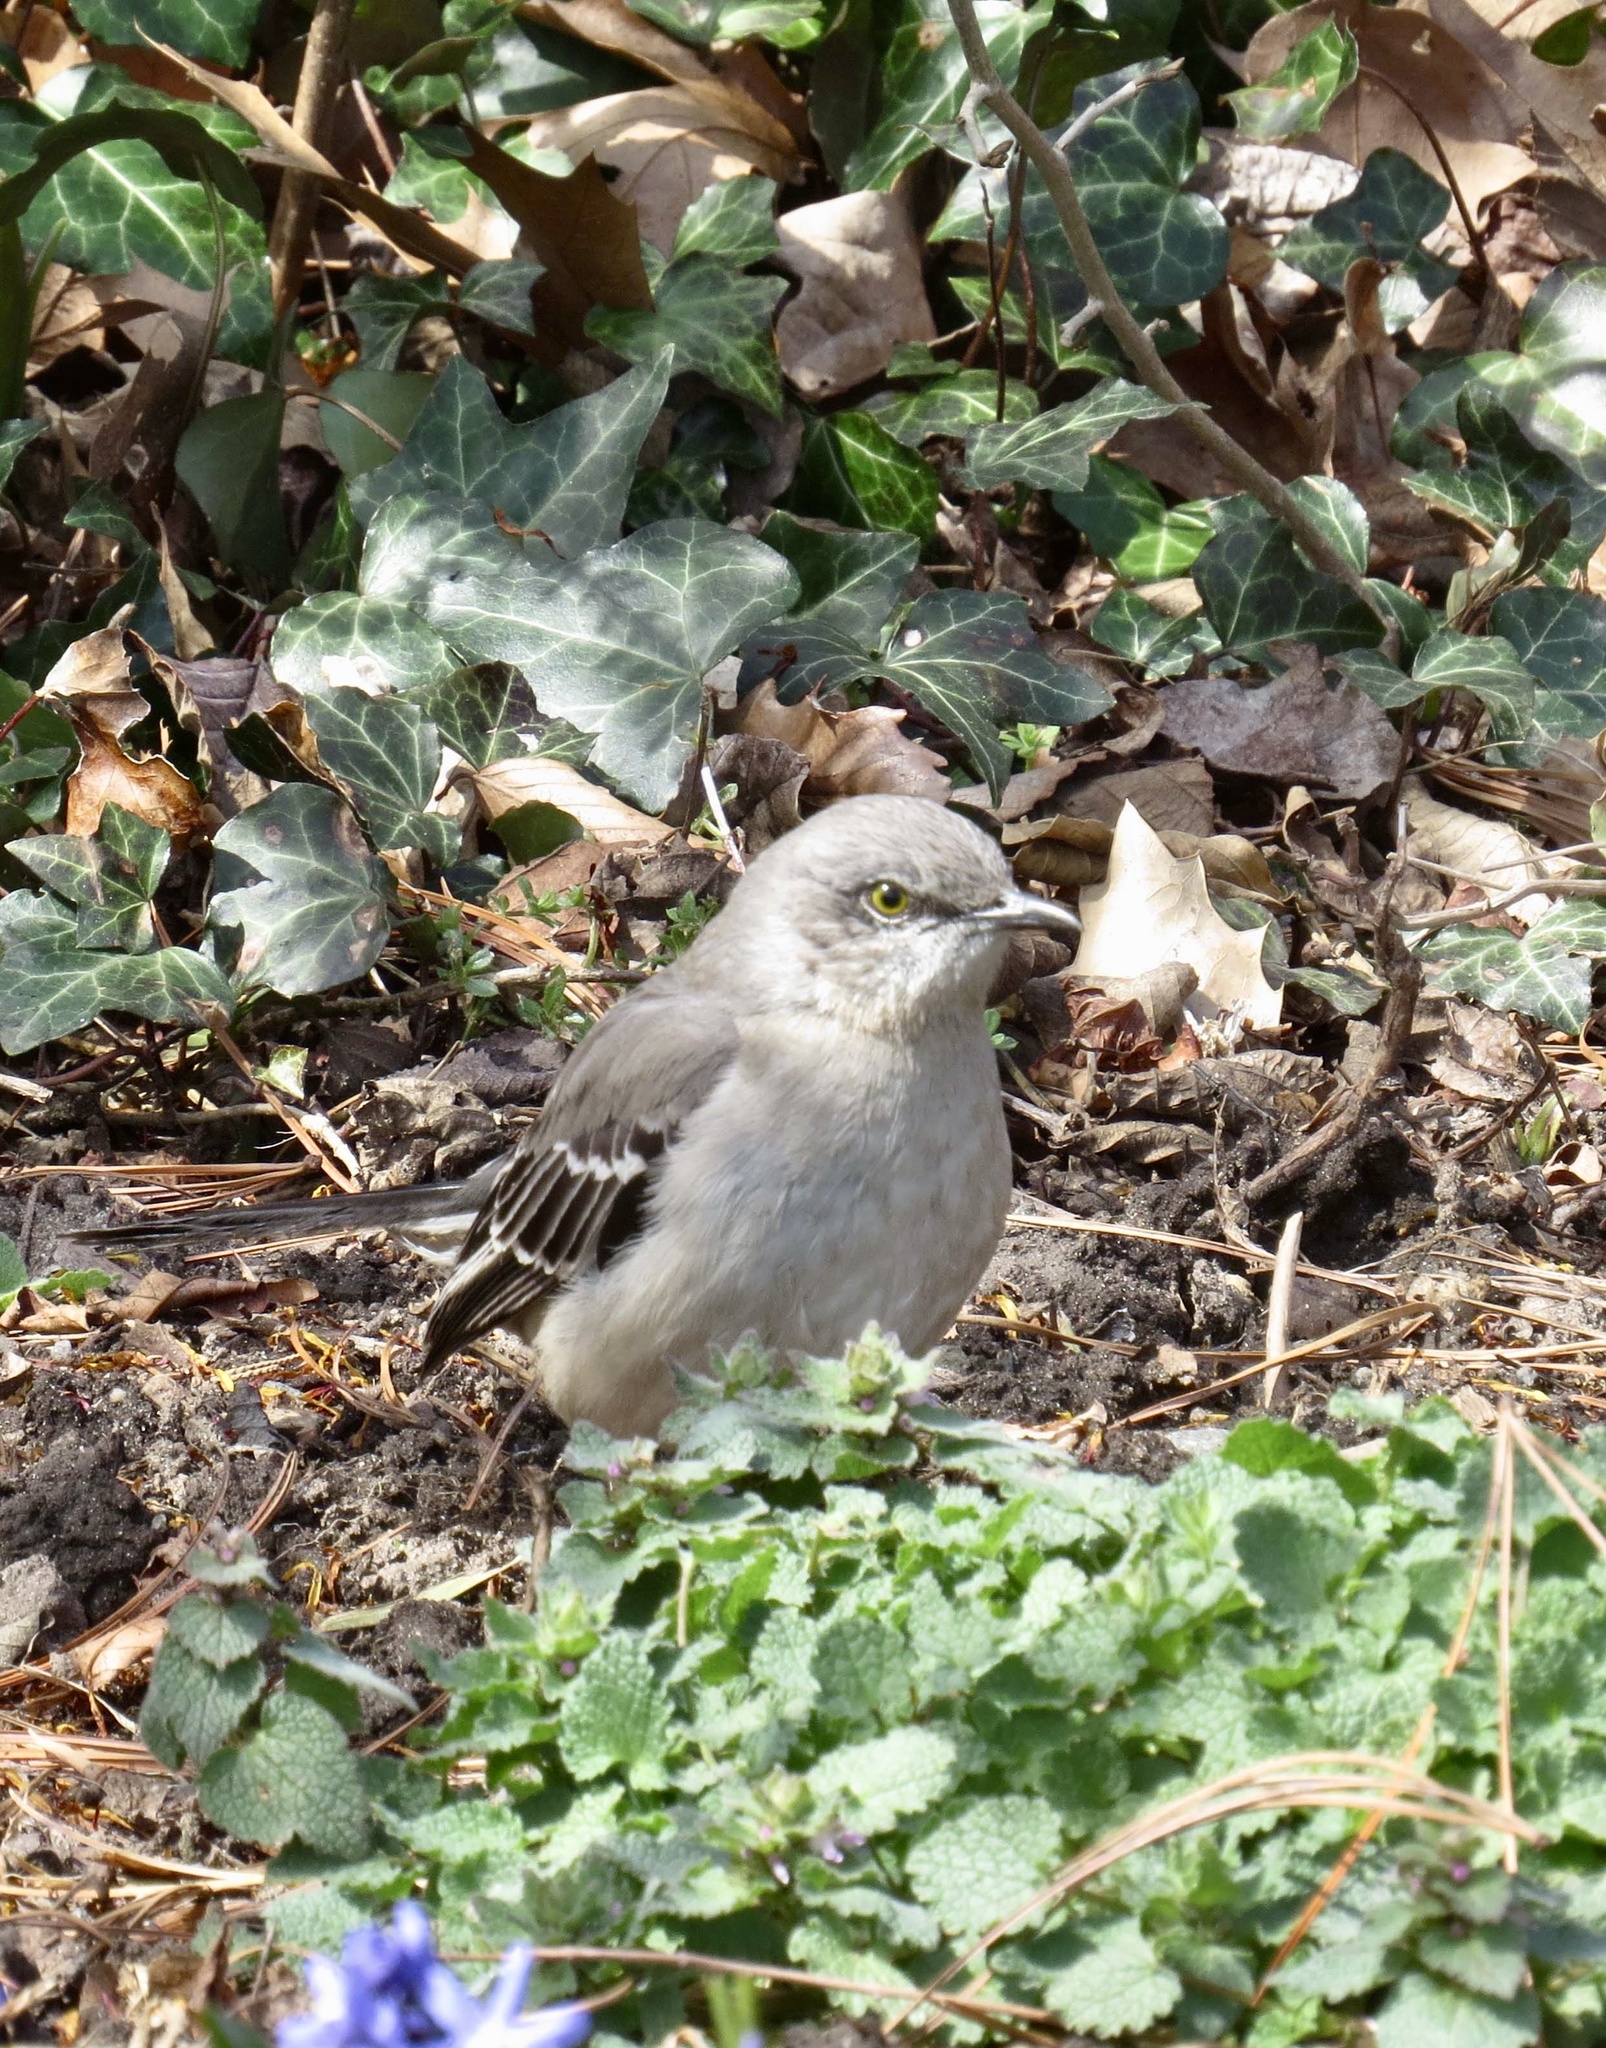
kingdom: Animalia
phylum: Chordata
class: Aves
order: Passeriformes
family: Mimidae
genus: Mimus
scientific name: Mimus polyglottos
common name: Northern mockingbird
